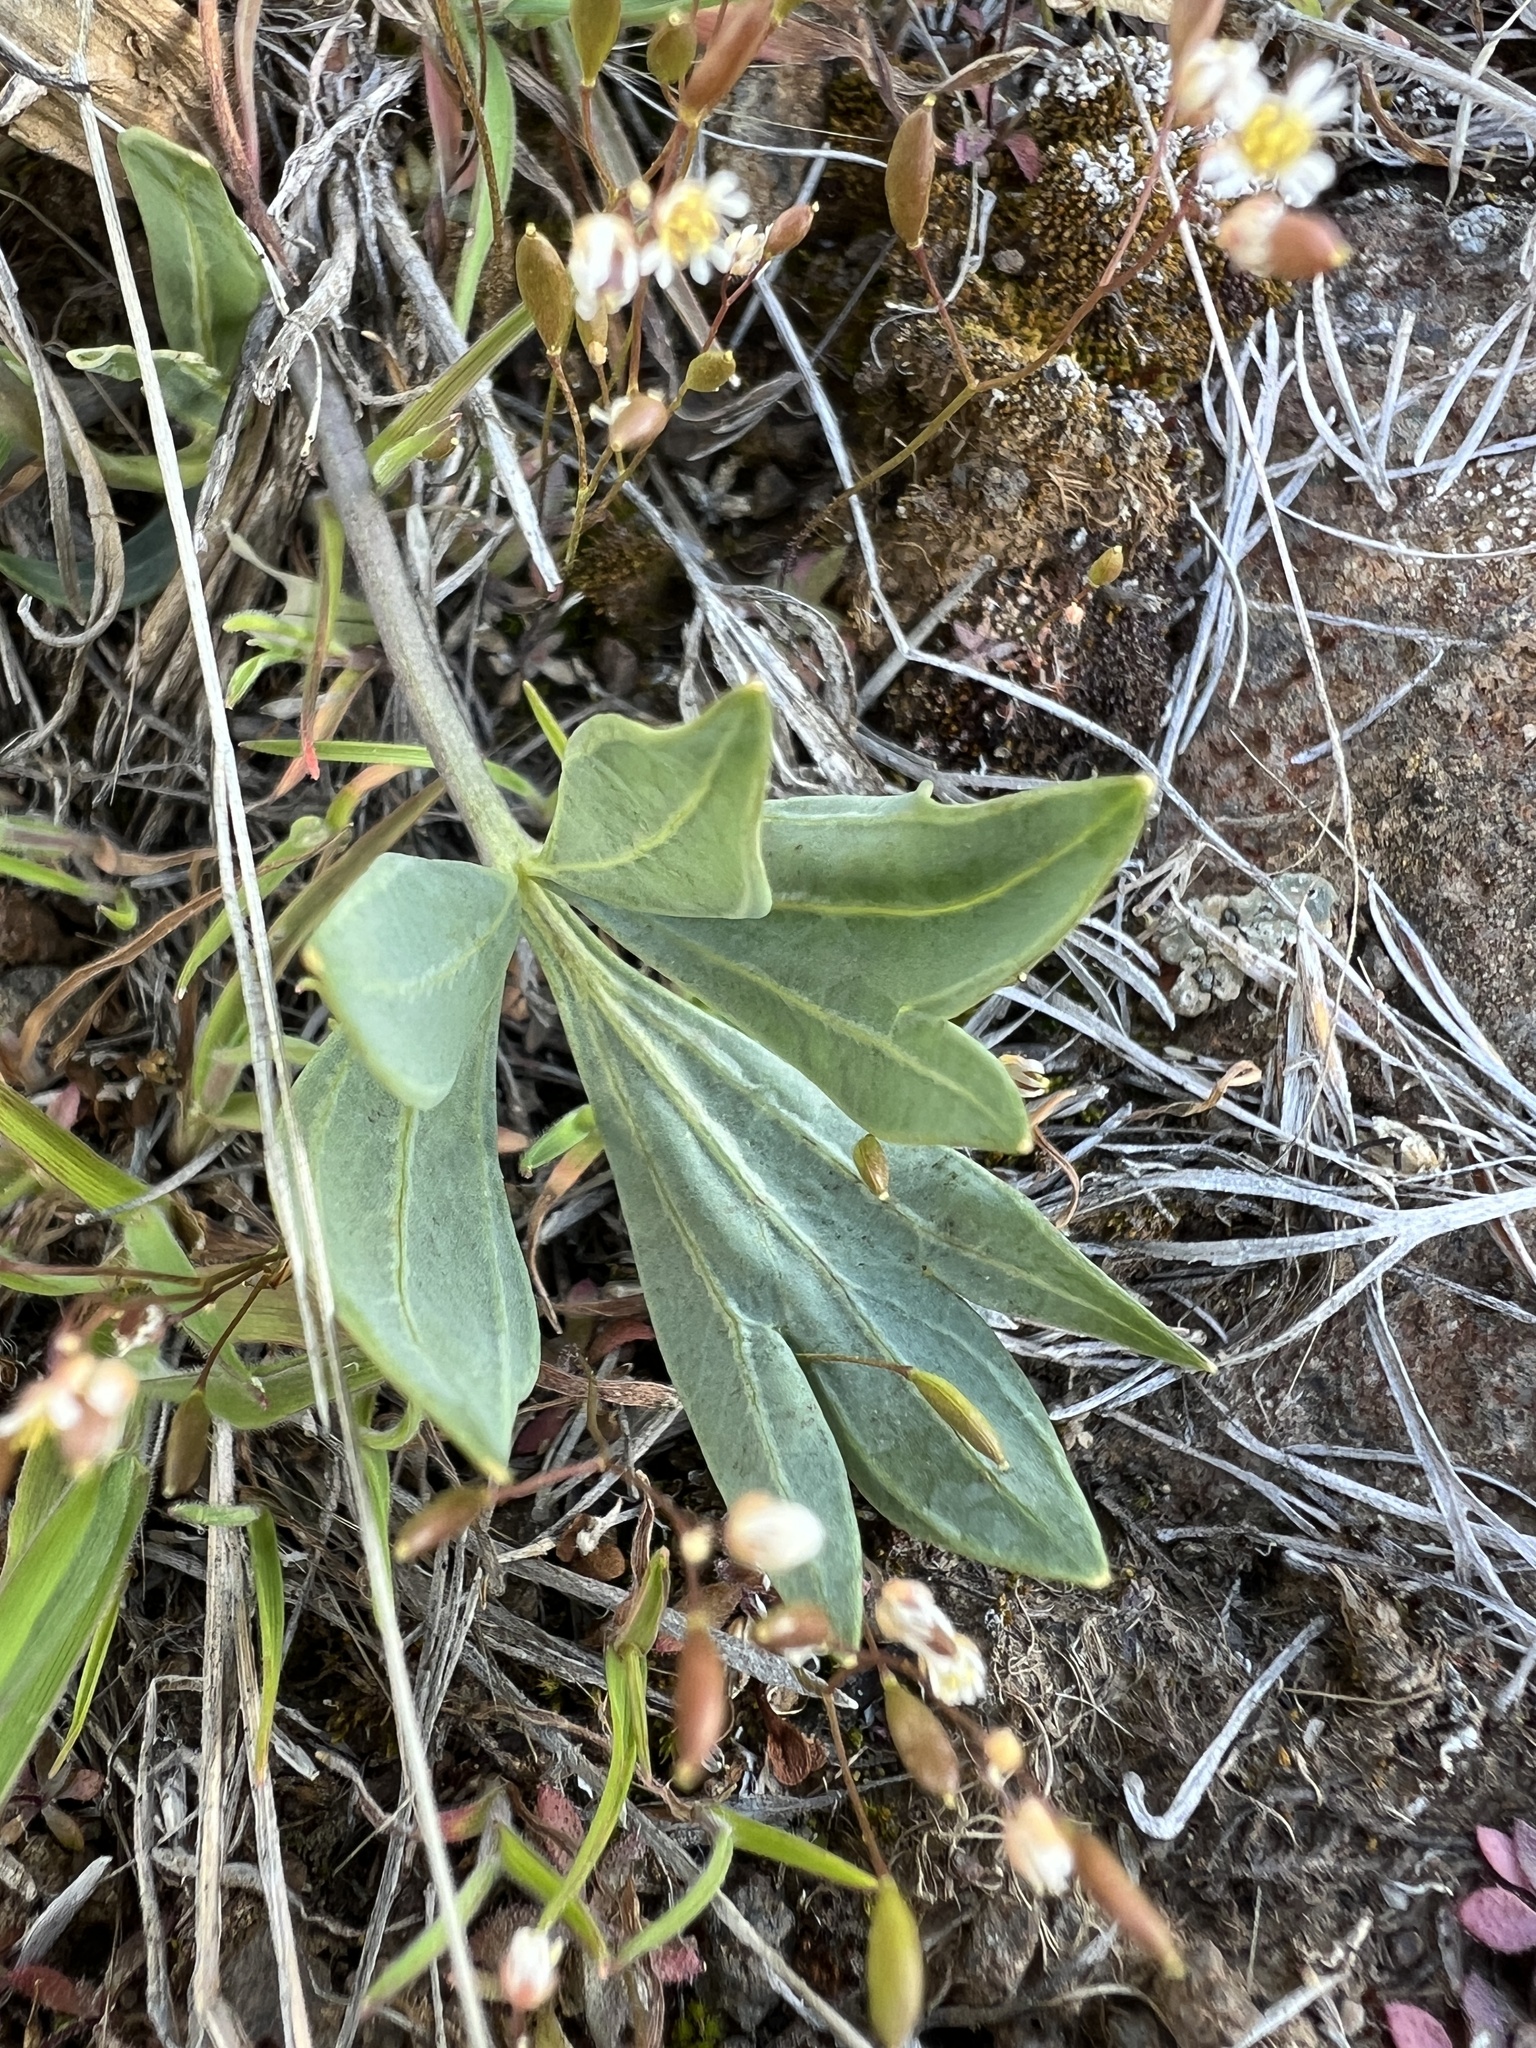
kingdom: Plantae
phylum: Tracheophyta
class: Magnoliopsida
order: Malpighiales
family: Violaceae
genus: Viola
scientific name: Viola trinervata
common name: Sagebrush violet
